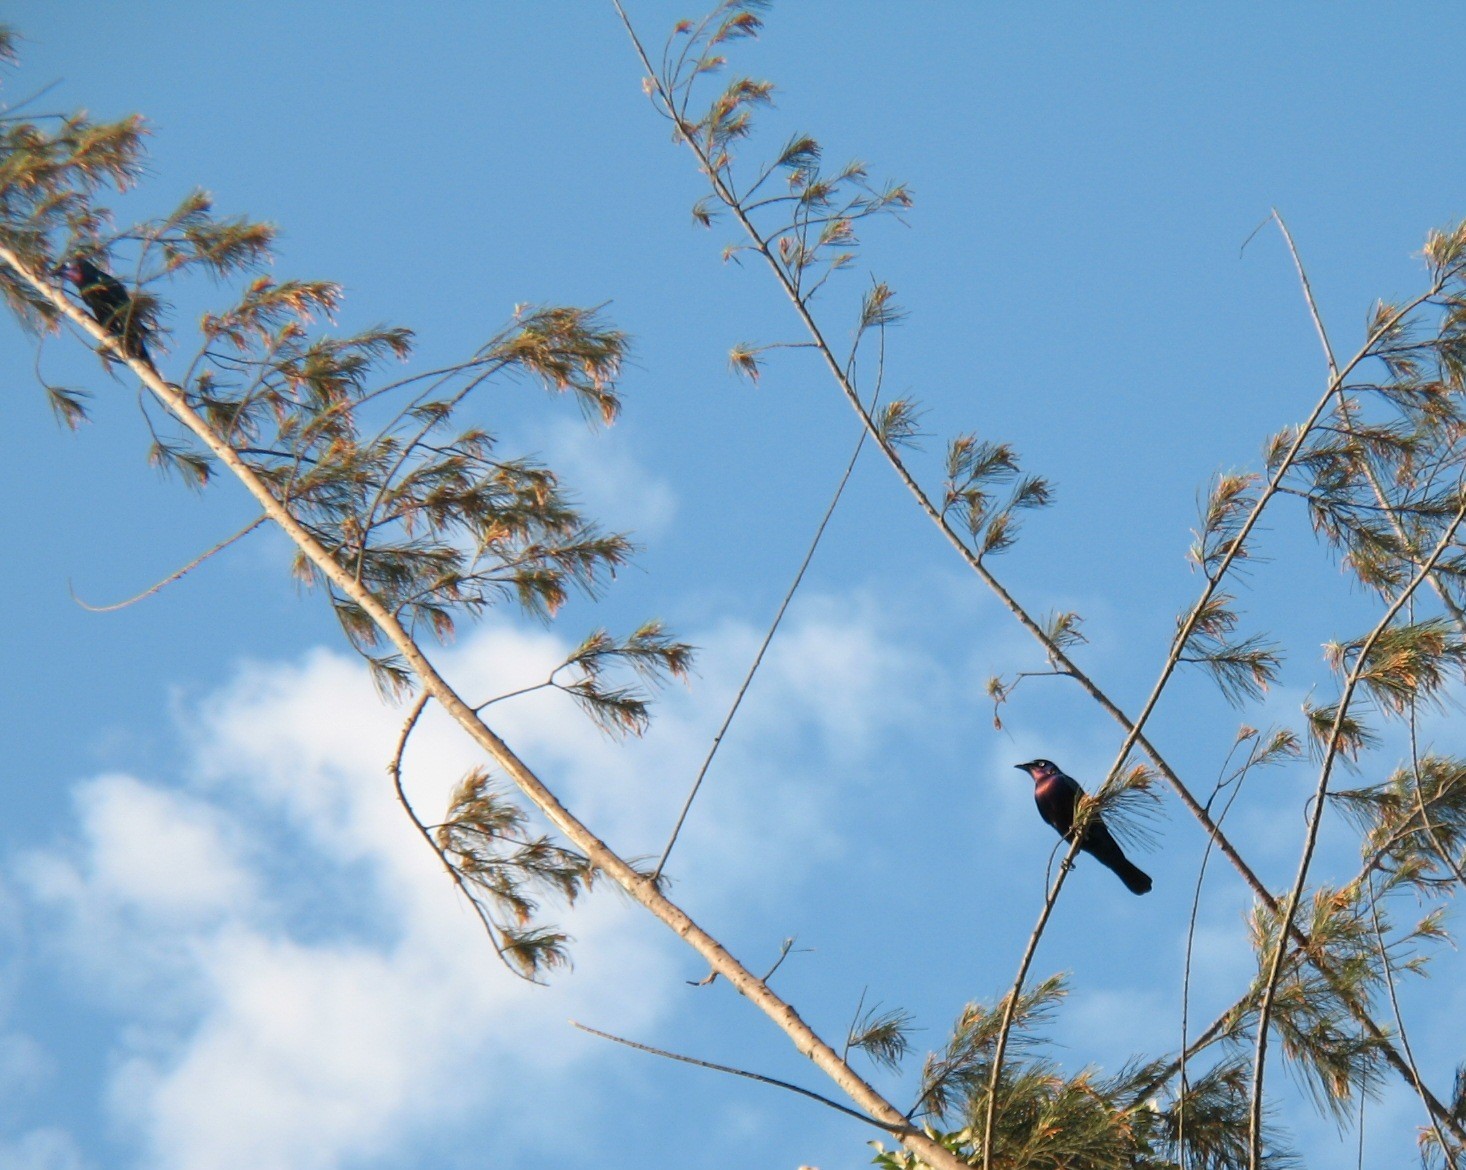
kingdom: Animalia
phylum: Chordata
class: Aves
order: Passeriformes
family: Sturnidae
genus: Lamprotornis
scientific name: Lamprotornis splendidus
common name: Splendid starling
